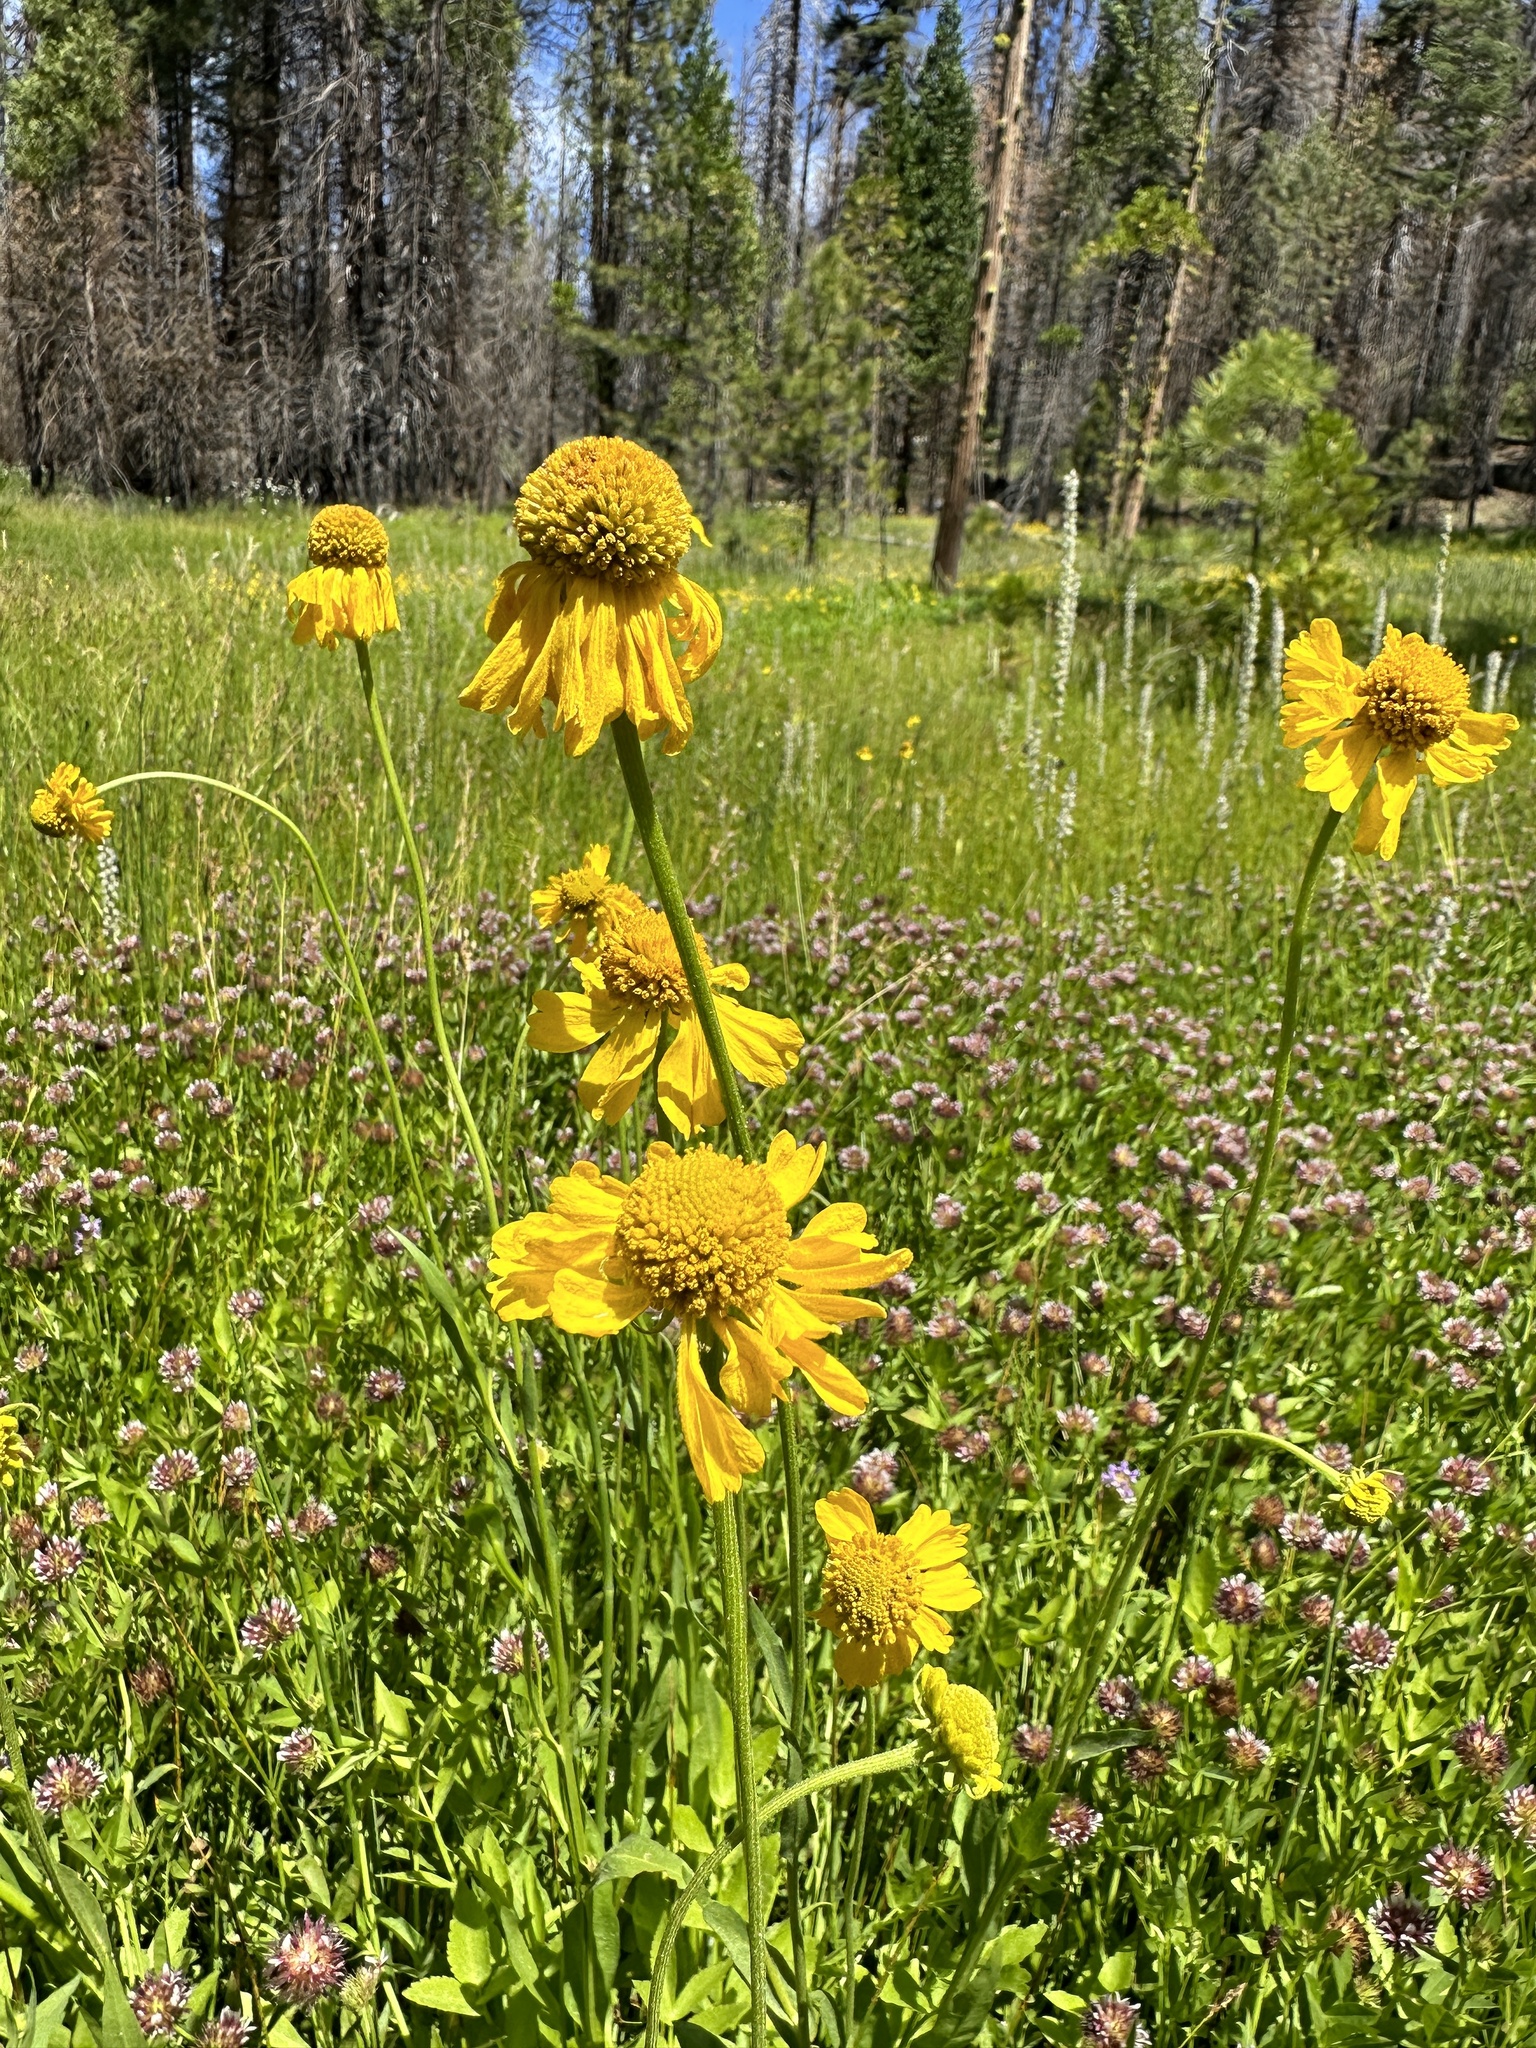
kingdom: Plantae
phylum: Tracheophyta
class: Magnoliopsida
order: Asterales
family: Asteraceae
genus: Helenium
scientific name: Helenium bigelovii
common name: Bigelow's sneezeweed
